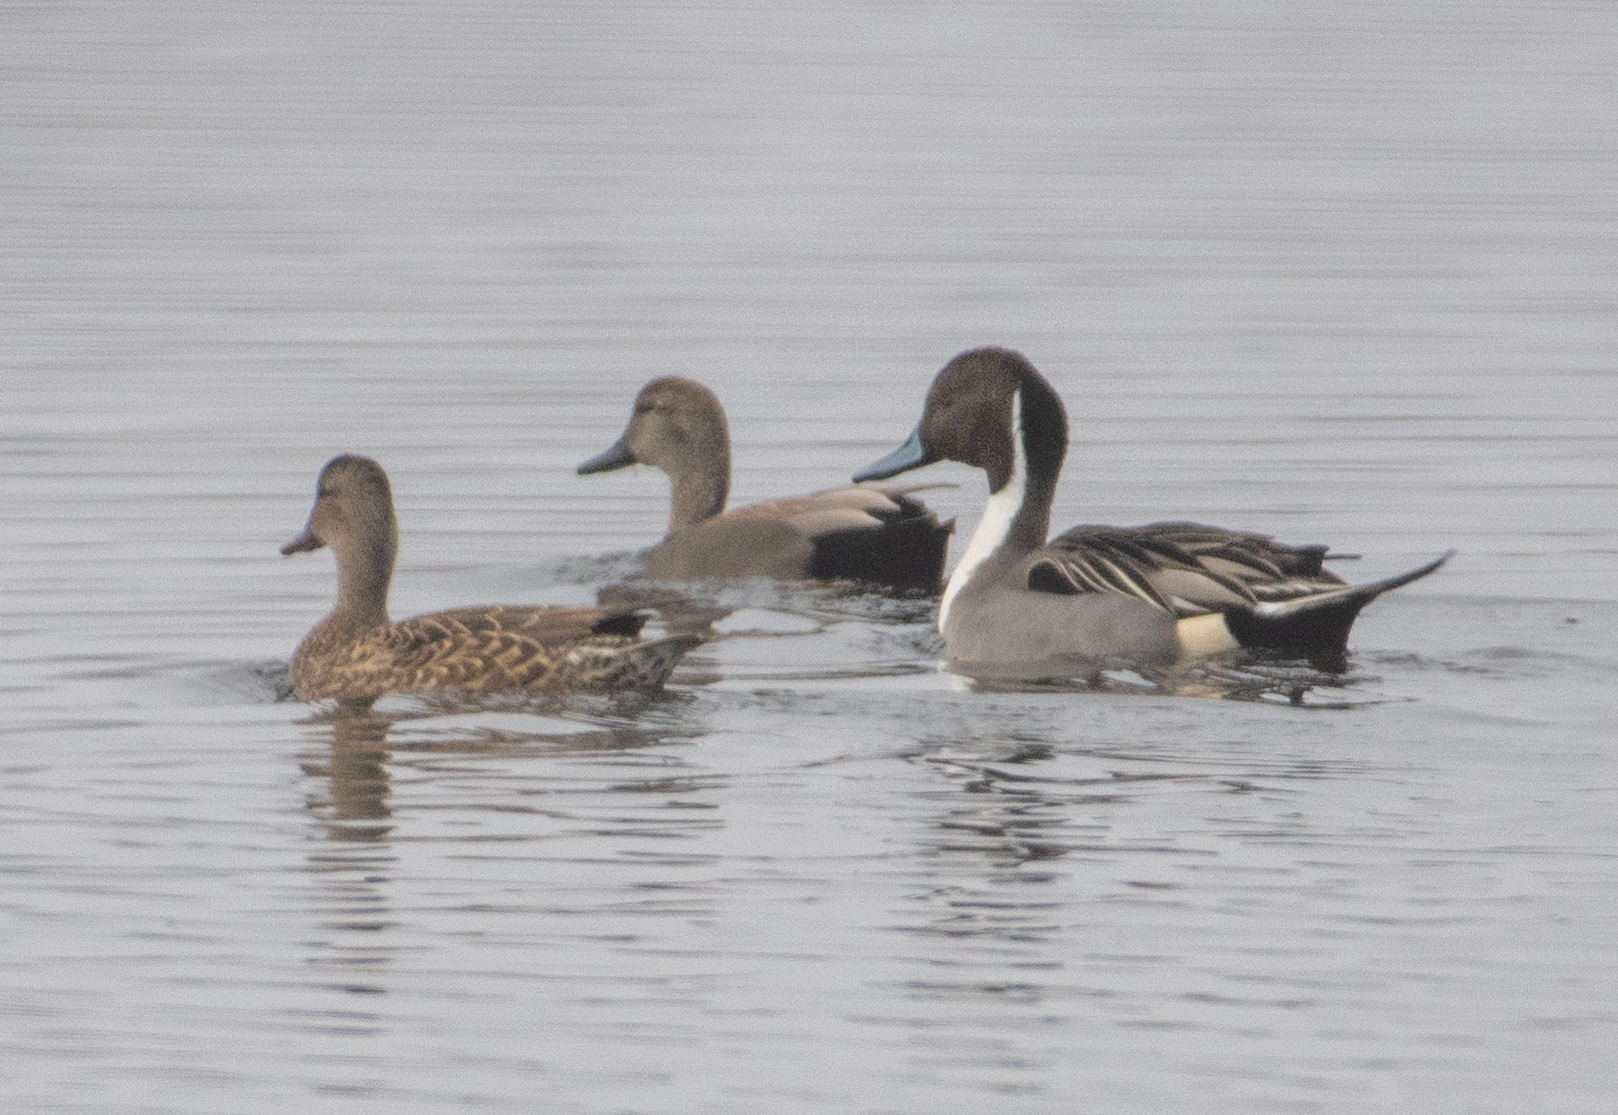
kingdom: Animalia
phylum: Chordata
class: Aves
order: Anseriformes
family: Anatidae
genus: Anas
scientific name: Anas acuta
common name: Northern pintail
